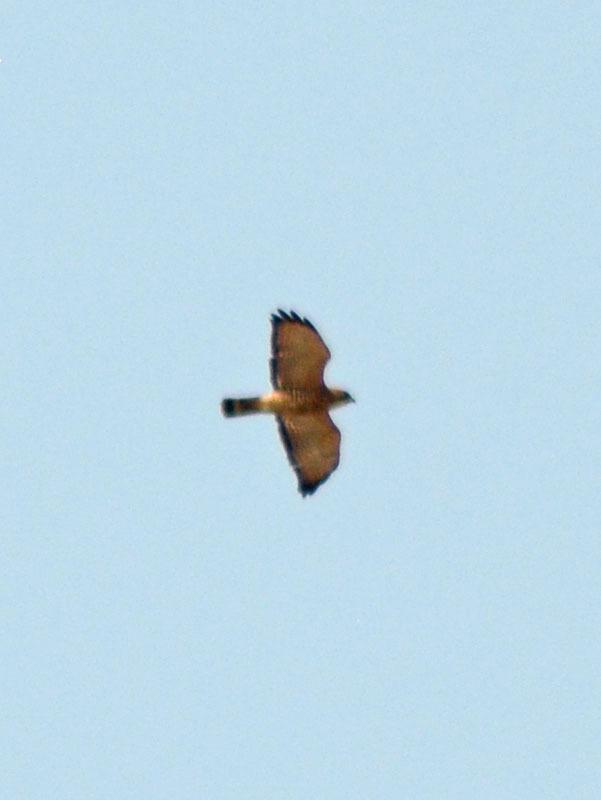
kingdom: Animalia
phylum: Chordata
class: Aves
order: Accipitriformes
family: Accipitridae
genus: Buteo
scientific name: Buteo platypterus
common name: Broad-winged hawk
